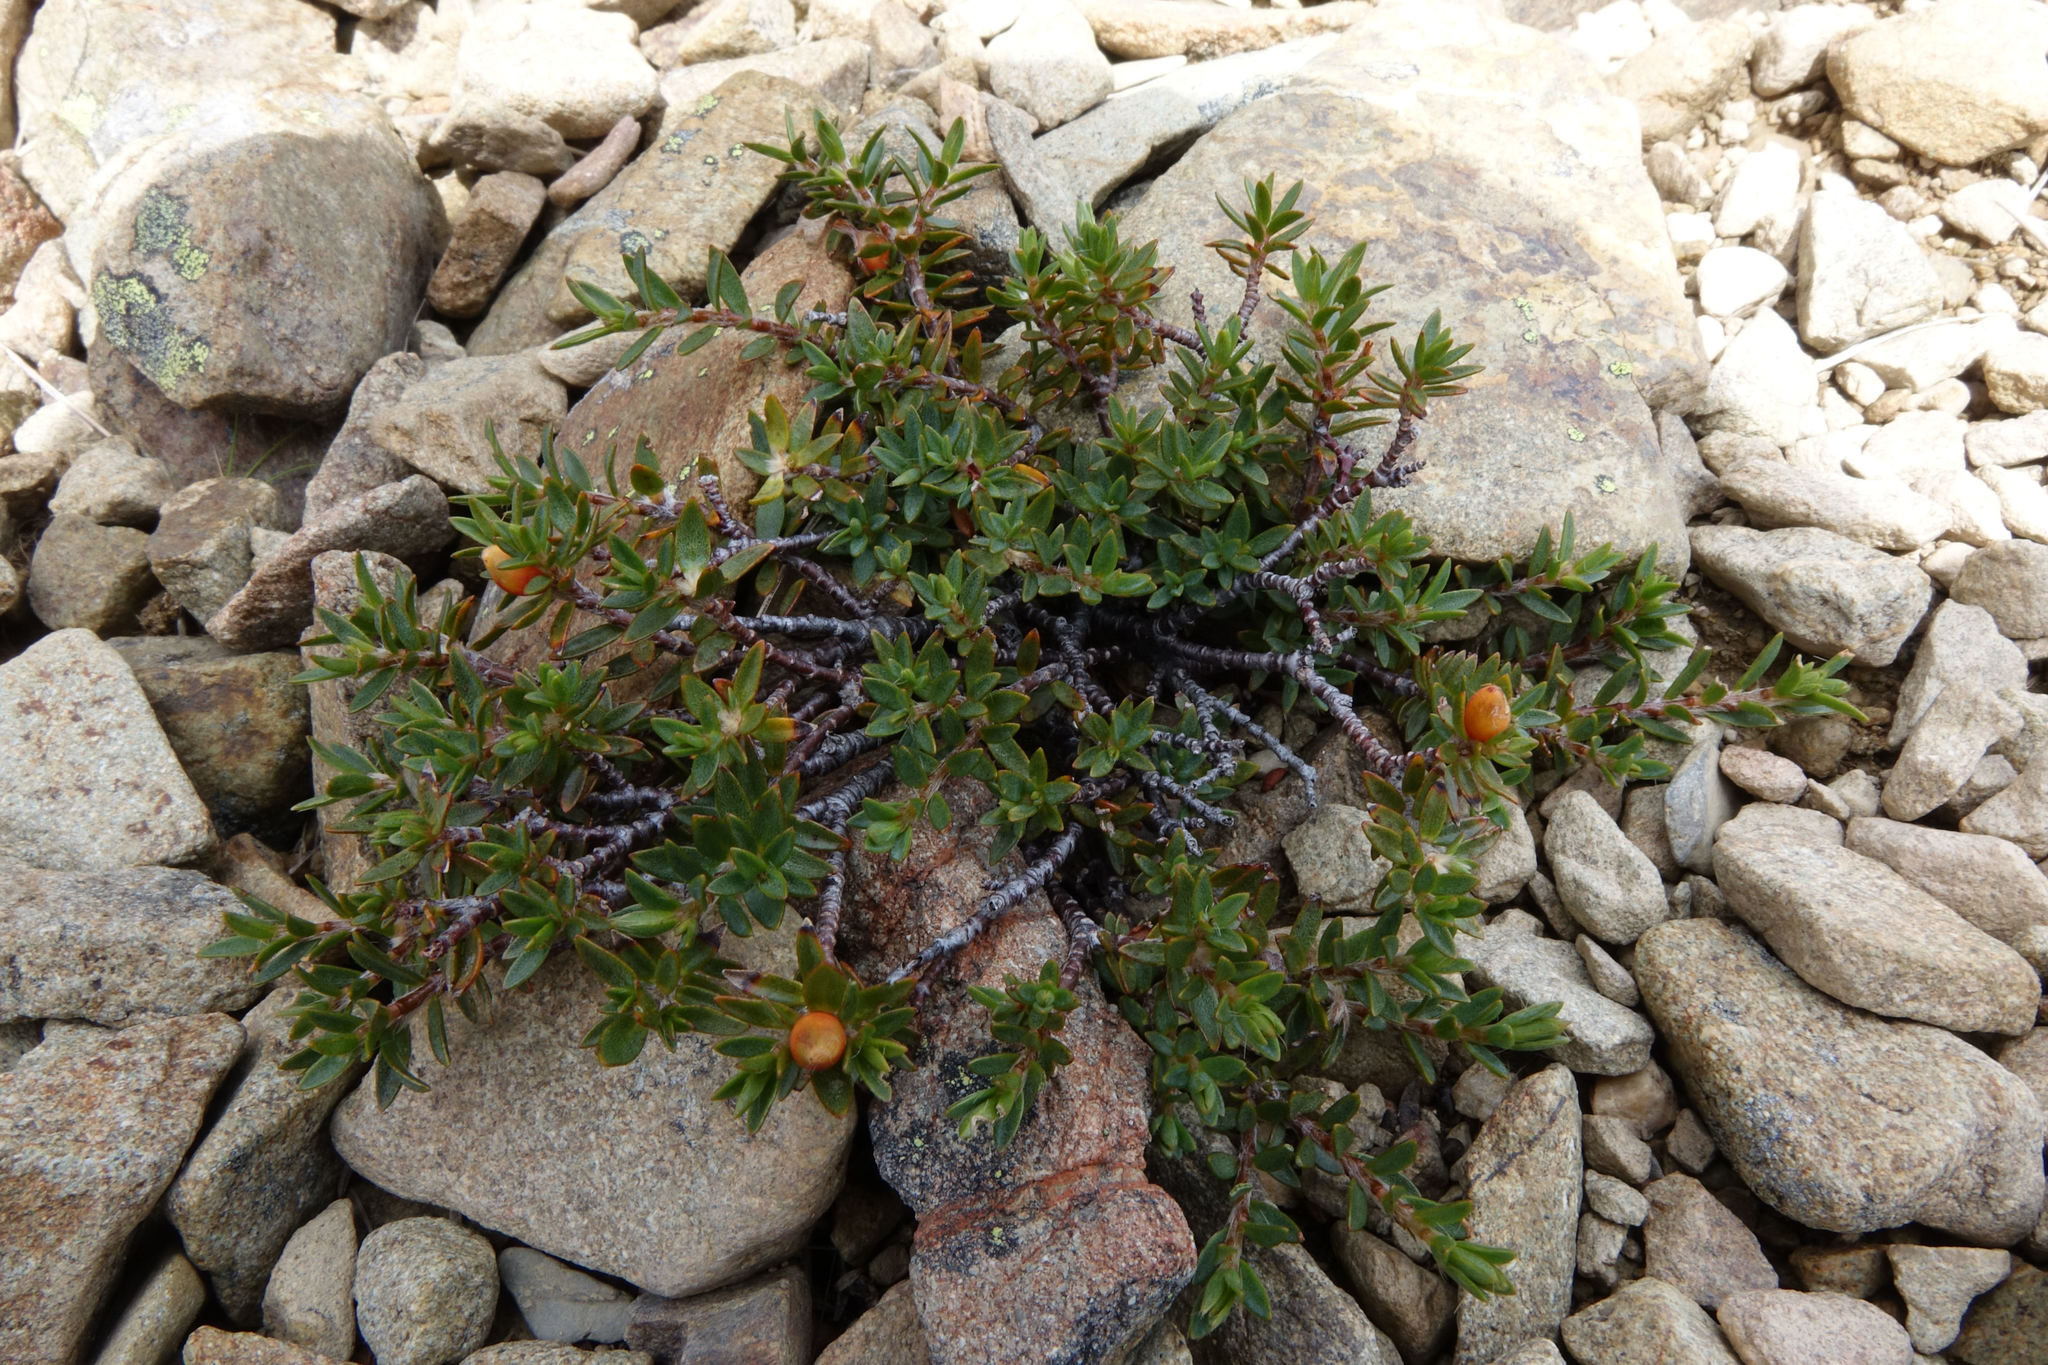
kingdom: Plantae
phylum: Tracheophyta
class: Magnoliopsida
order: Malvales
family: Thymelaeaceae
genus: Pimelea
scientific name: Pimelea notia
